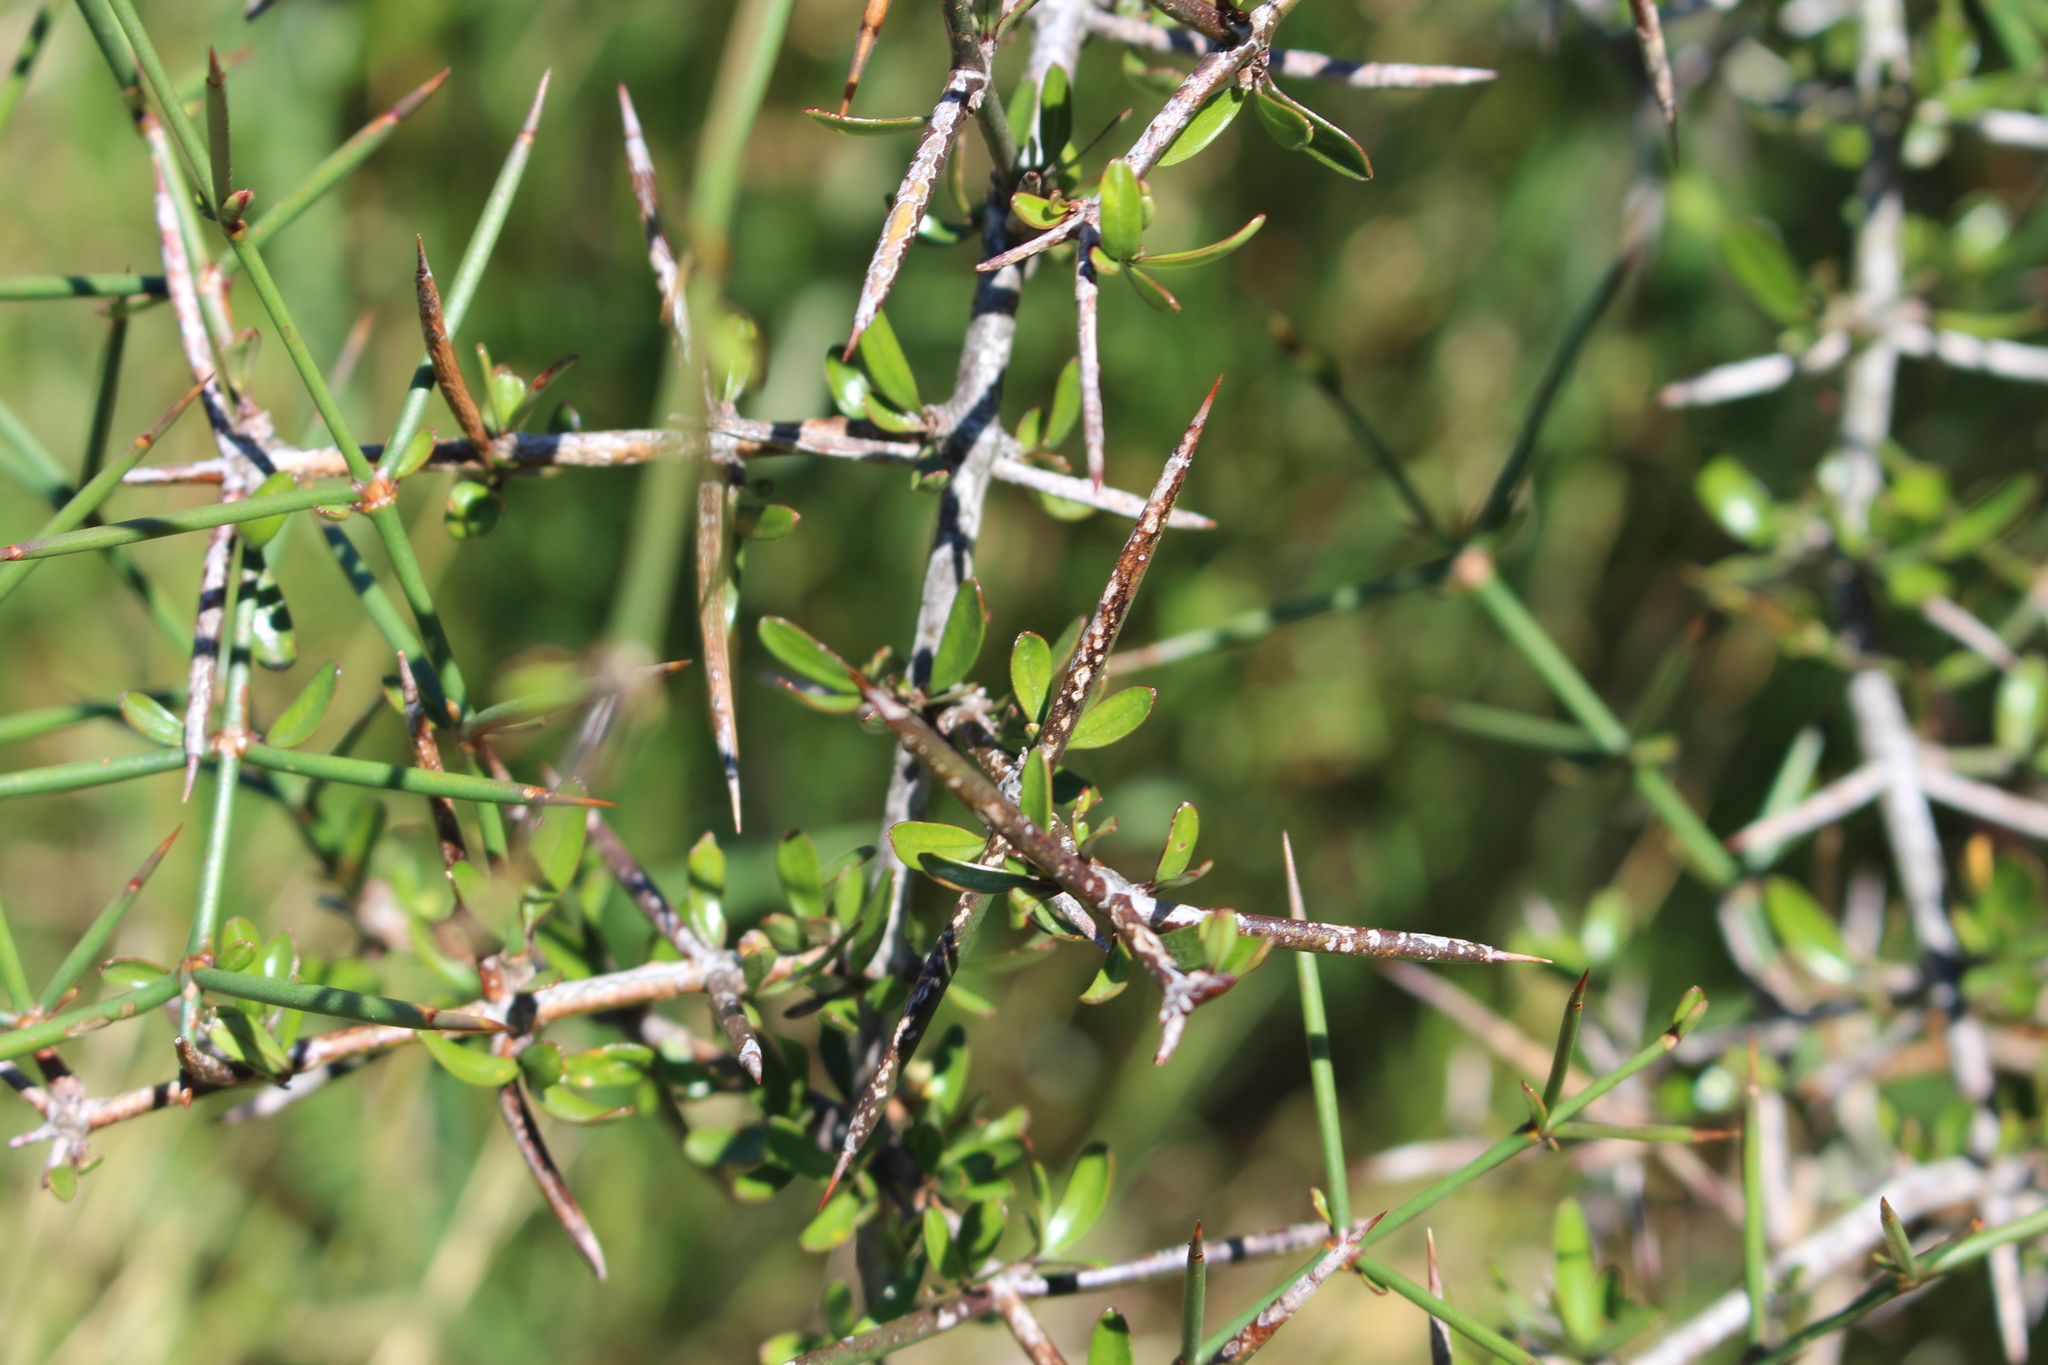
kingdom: Plantae
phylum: Tracheophyta
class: Magnoliopsida
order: Rosales
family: Rhamnaceae
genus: Discaria
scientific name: Discaria toumatou
